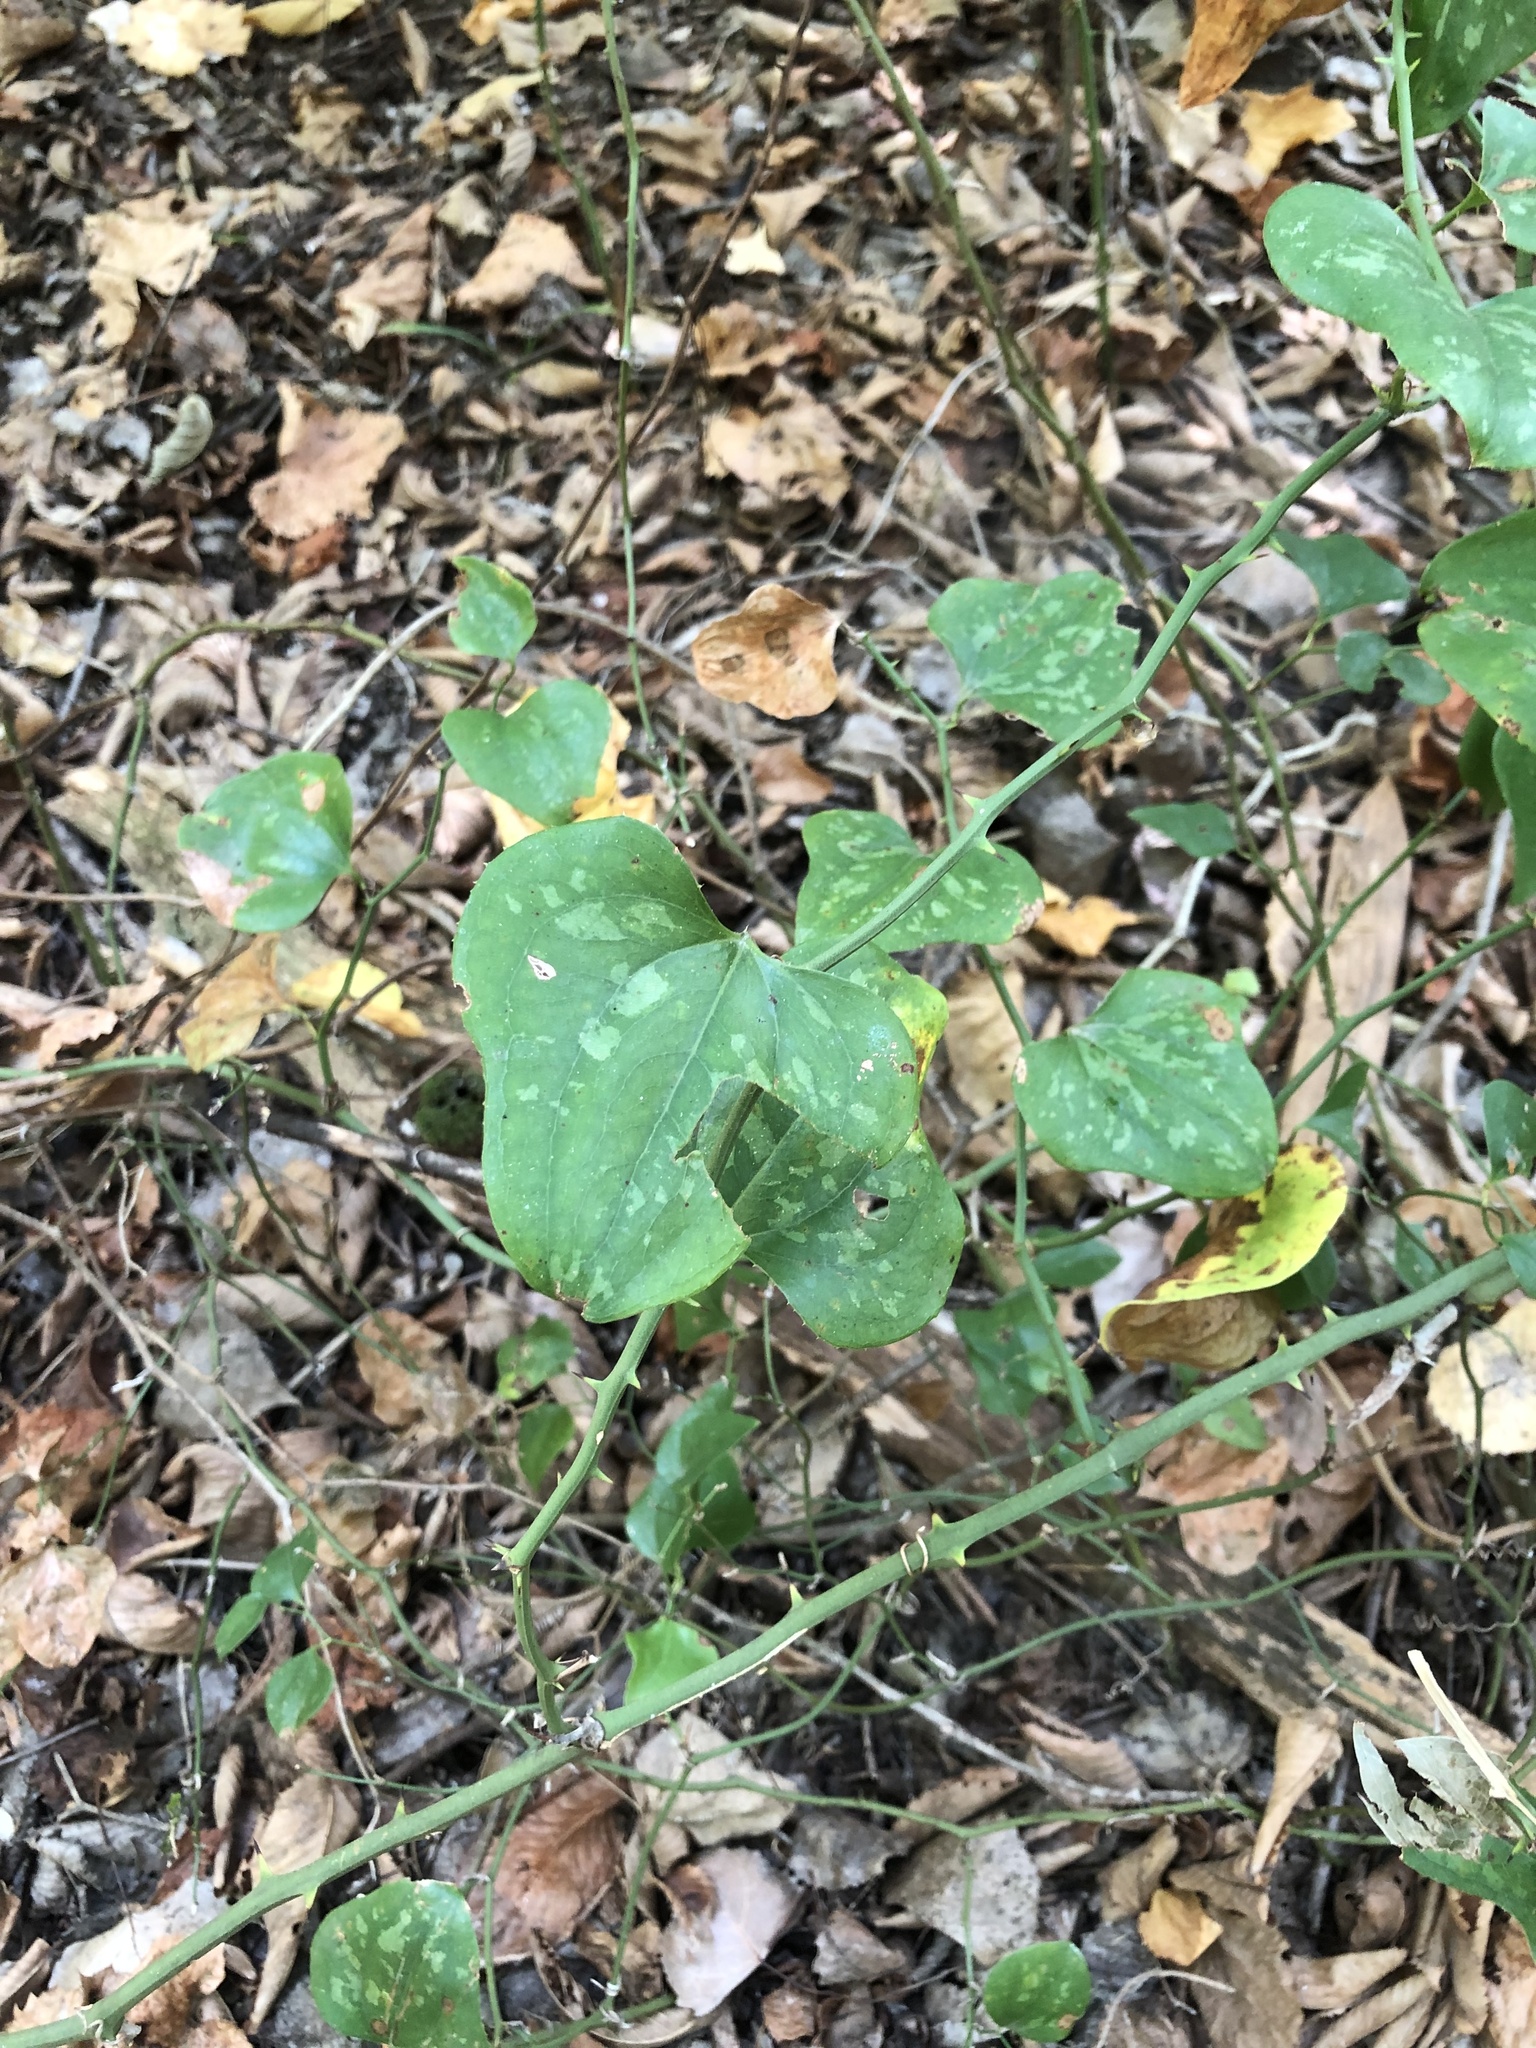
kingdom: Plantae
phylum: Tracheophyta
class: Liliopsida
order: Liliales
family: Smilacaceae
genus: Smilax
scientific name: Smilax bona-nox
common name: Catbrier
